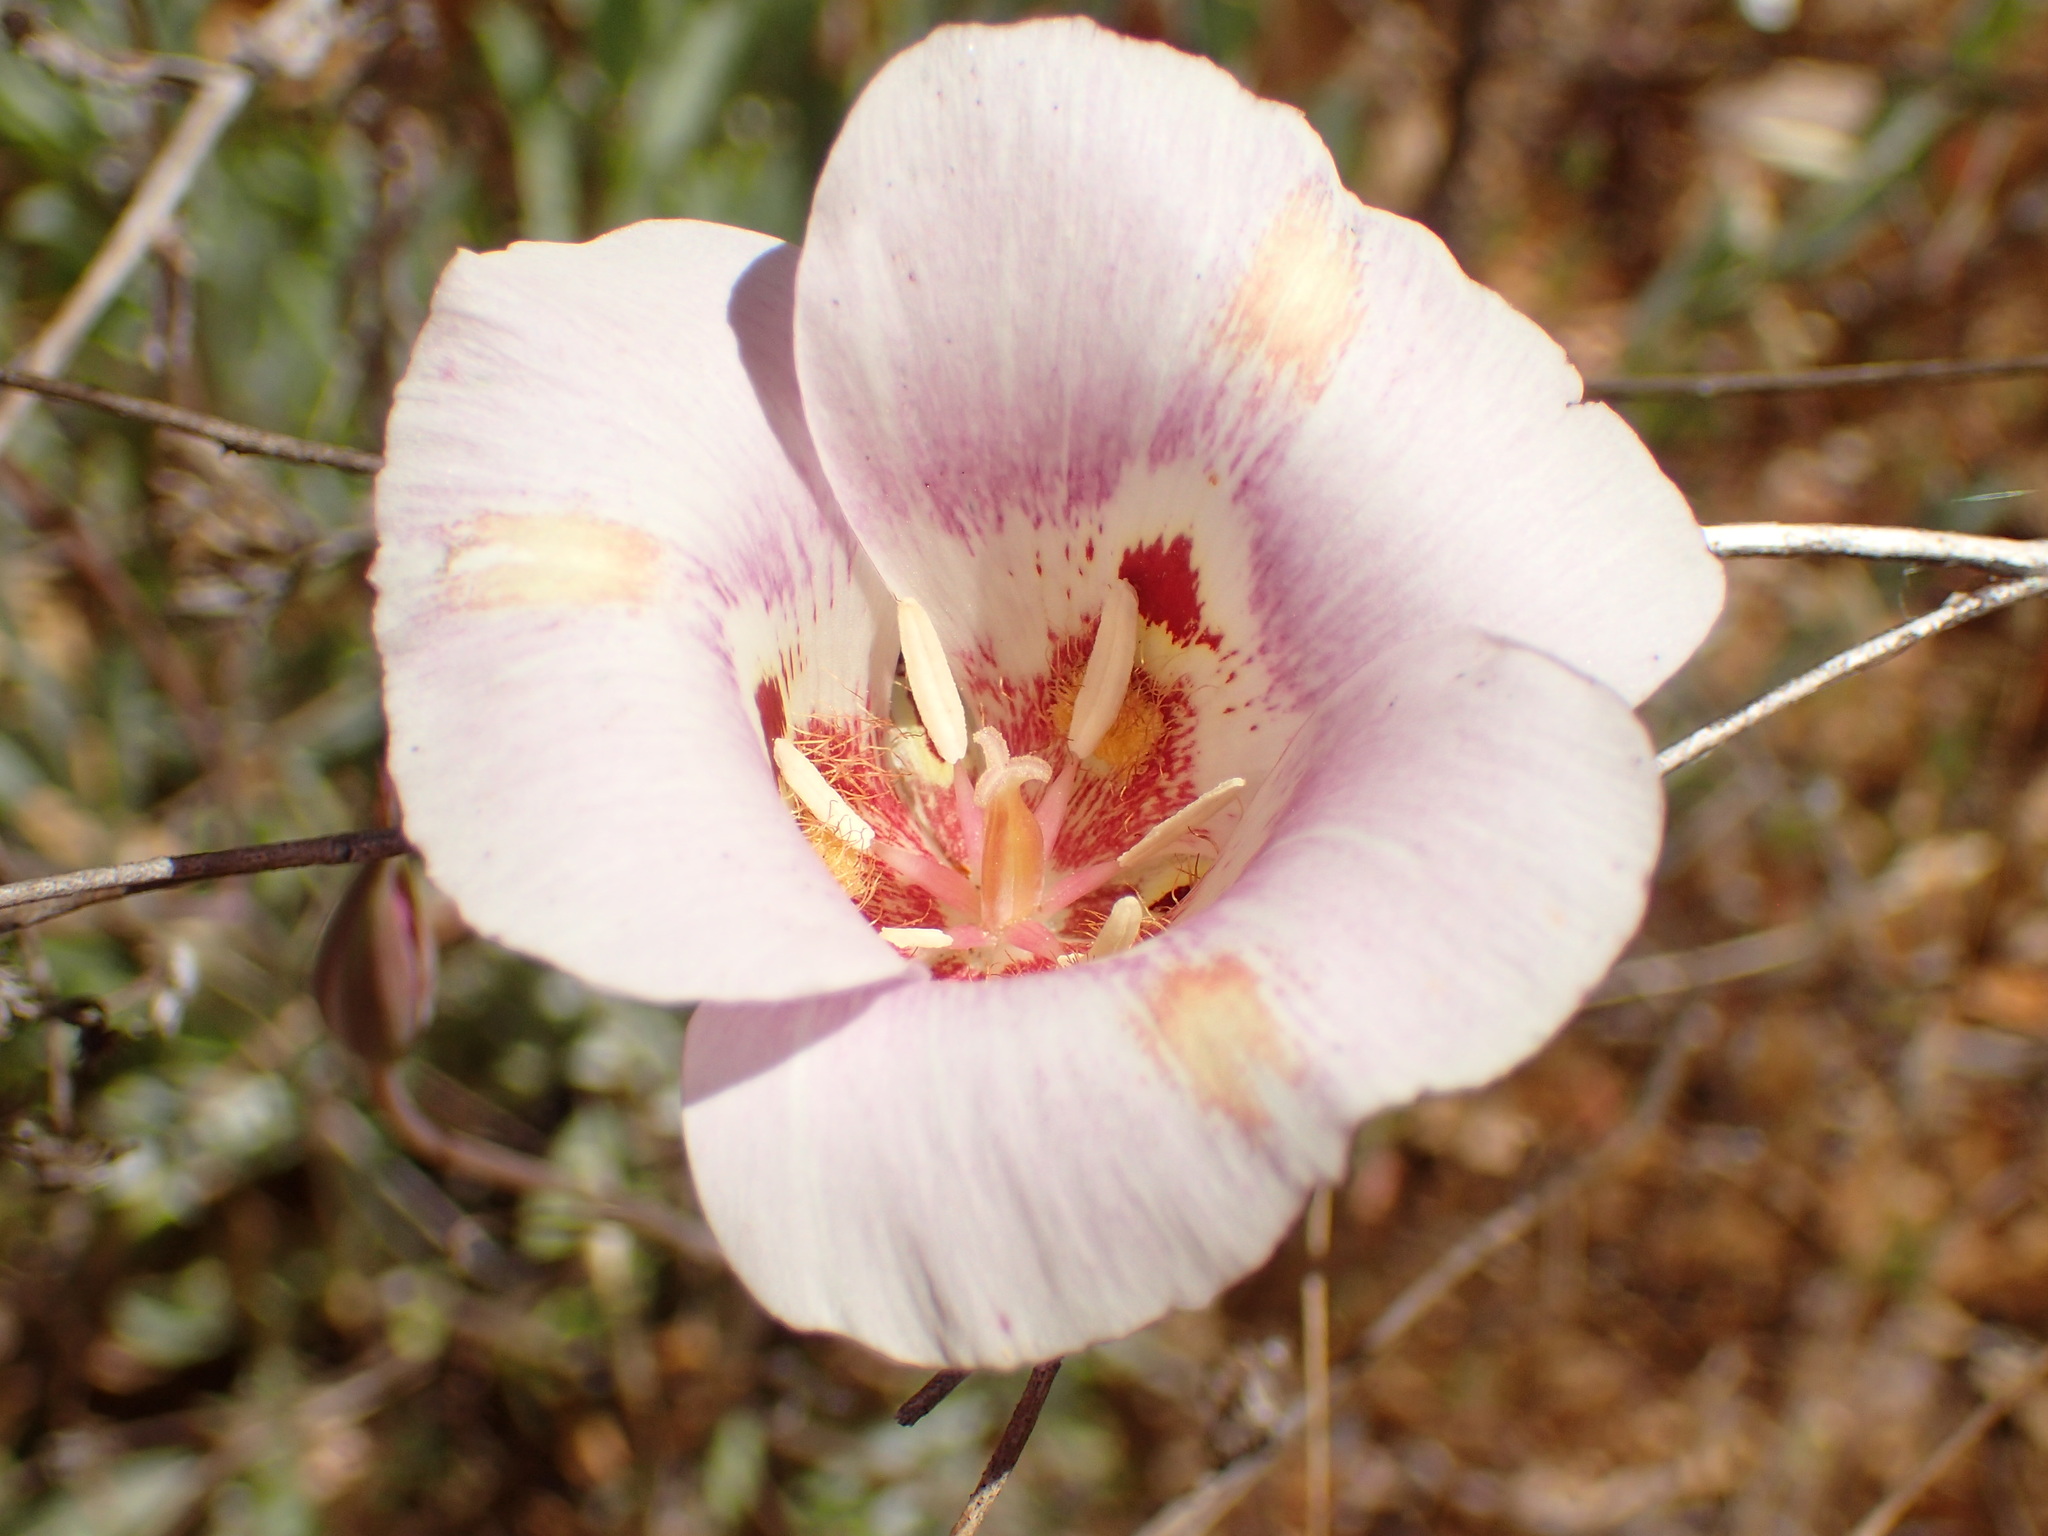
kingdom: Plantae
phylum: Tracheophyta
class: Liliopsida
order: Liliales
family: Liliaceae
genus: Calochortus
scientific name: Calochortus venustus
